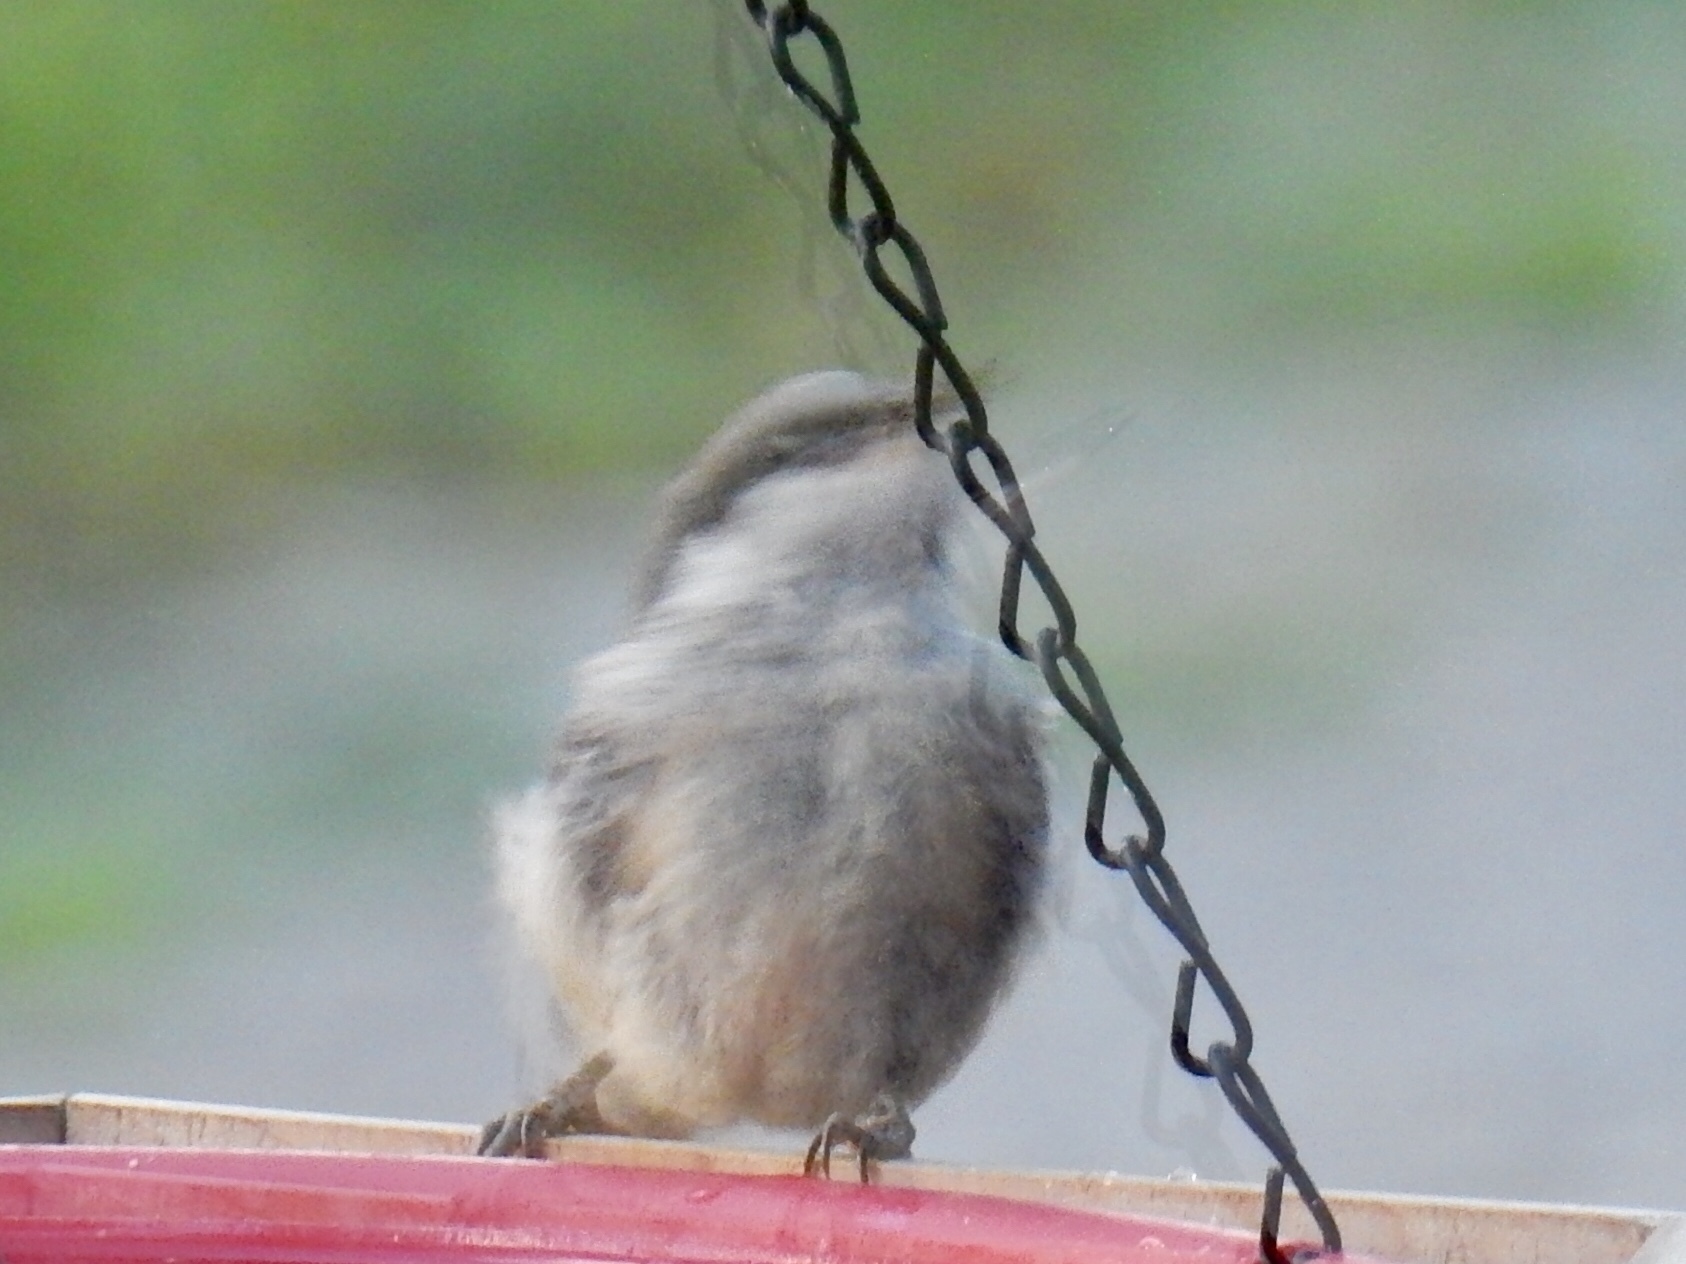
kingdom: Animalia
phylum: Chordata
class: Aves
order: Passeriformes
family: Sittidae
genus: Sitta
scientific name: Sitta pygmaea
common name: Pygmy nuthatch
